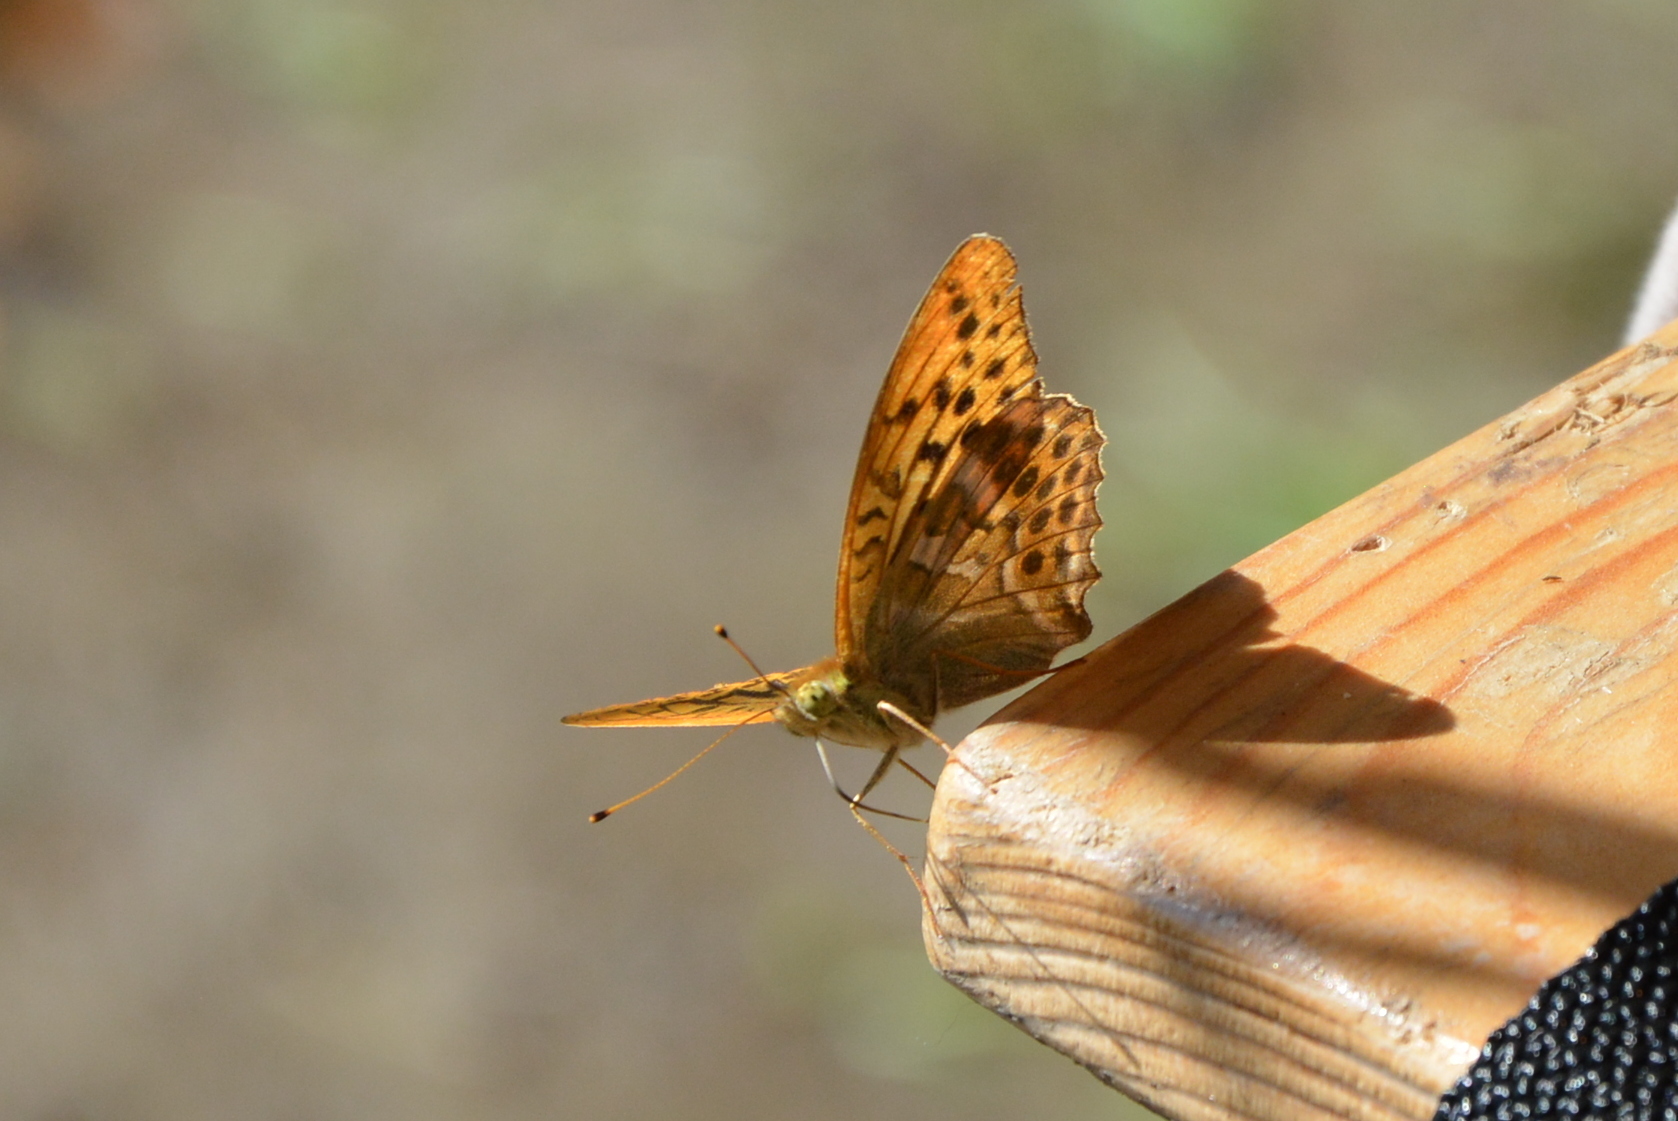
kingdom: Animalia
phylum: Arthropoda
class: Insecta
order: Lepidoptera
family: Nymphalidae
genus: Argynnis
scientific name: Argynnis paphia
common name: Silver-washed fritillary
